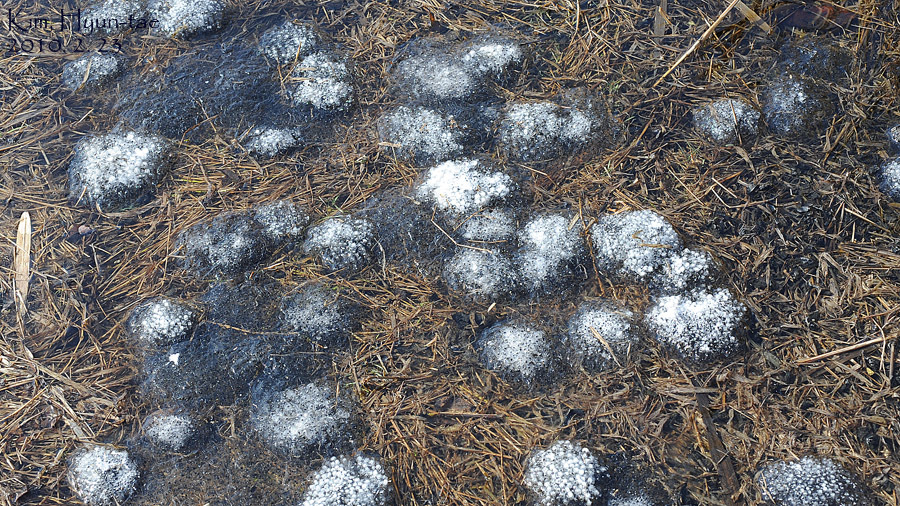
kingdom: Animalia
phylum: Chordata
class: Amphibia
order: Anura
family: Ranidae
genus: Rana
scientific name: Rana uenoi
